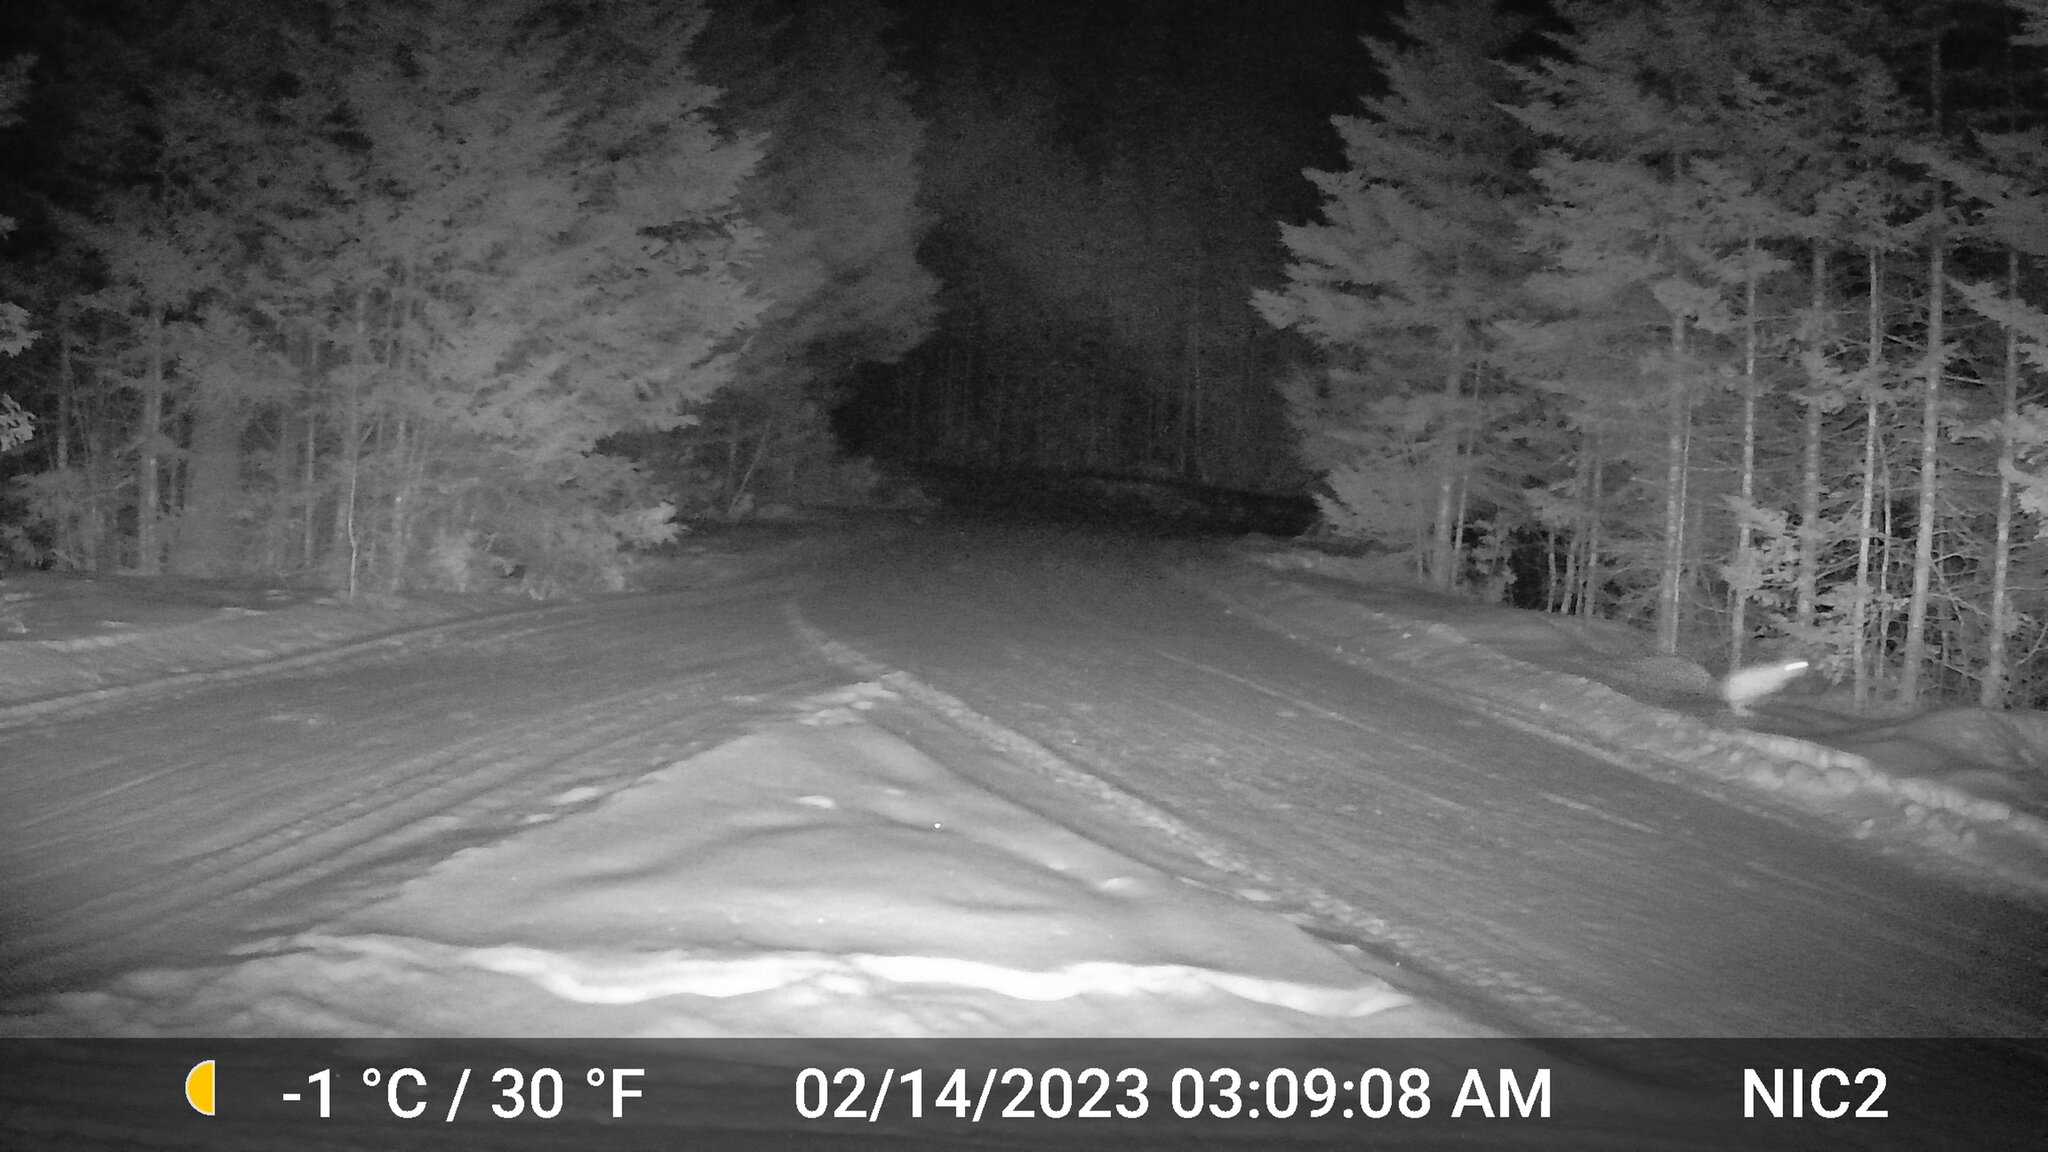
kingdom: Animalia
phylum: Chordata
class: Mammalia
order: Lagomorpha
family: Leporidae
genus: Lepus
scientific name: Lepus americanus
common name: Snowshoe hare
